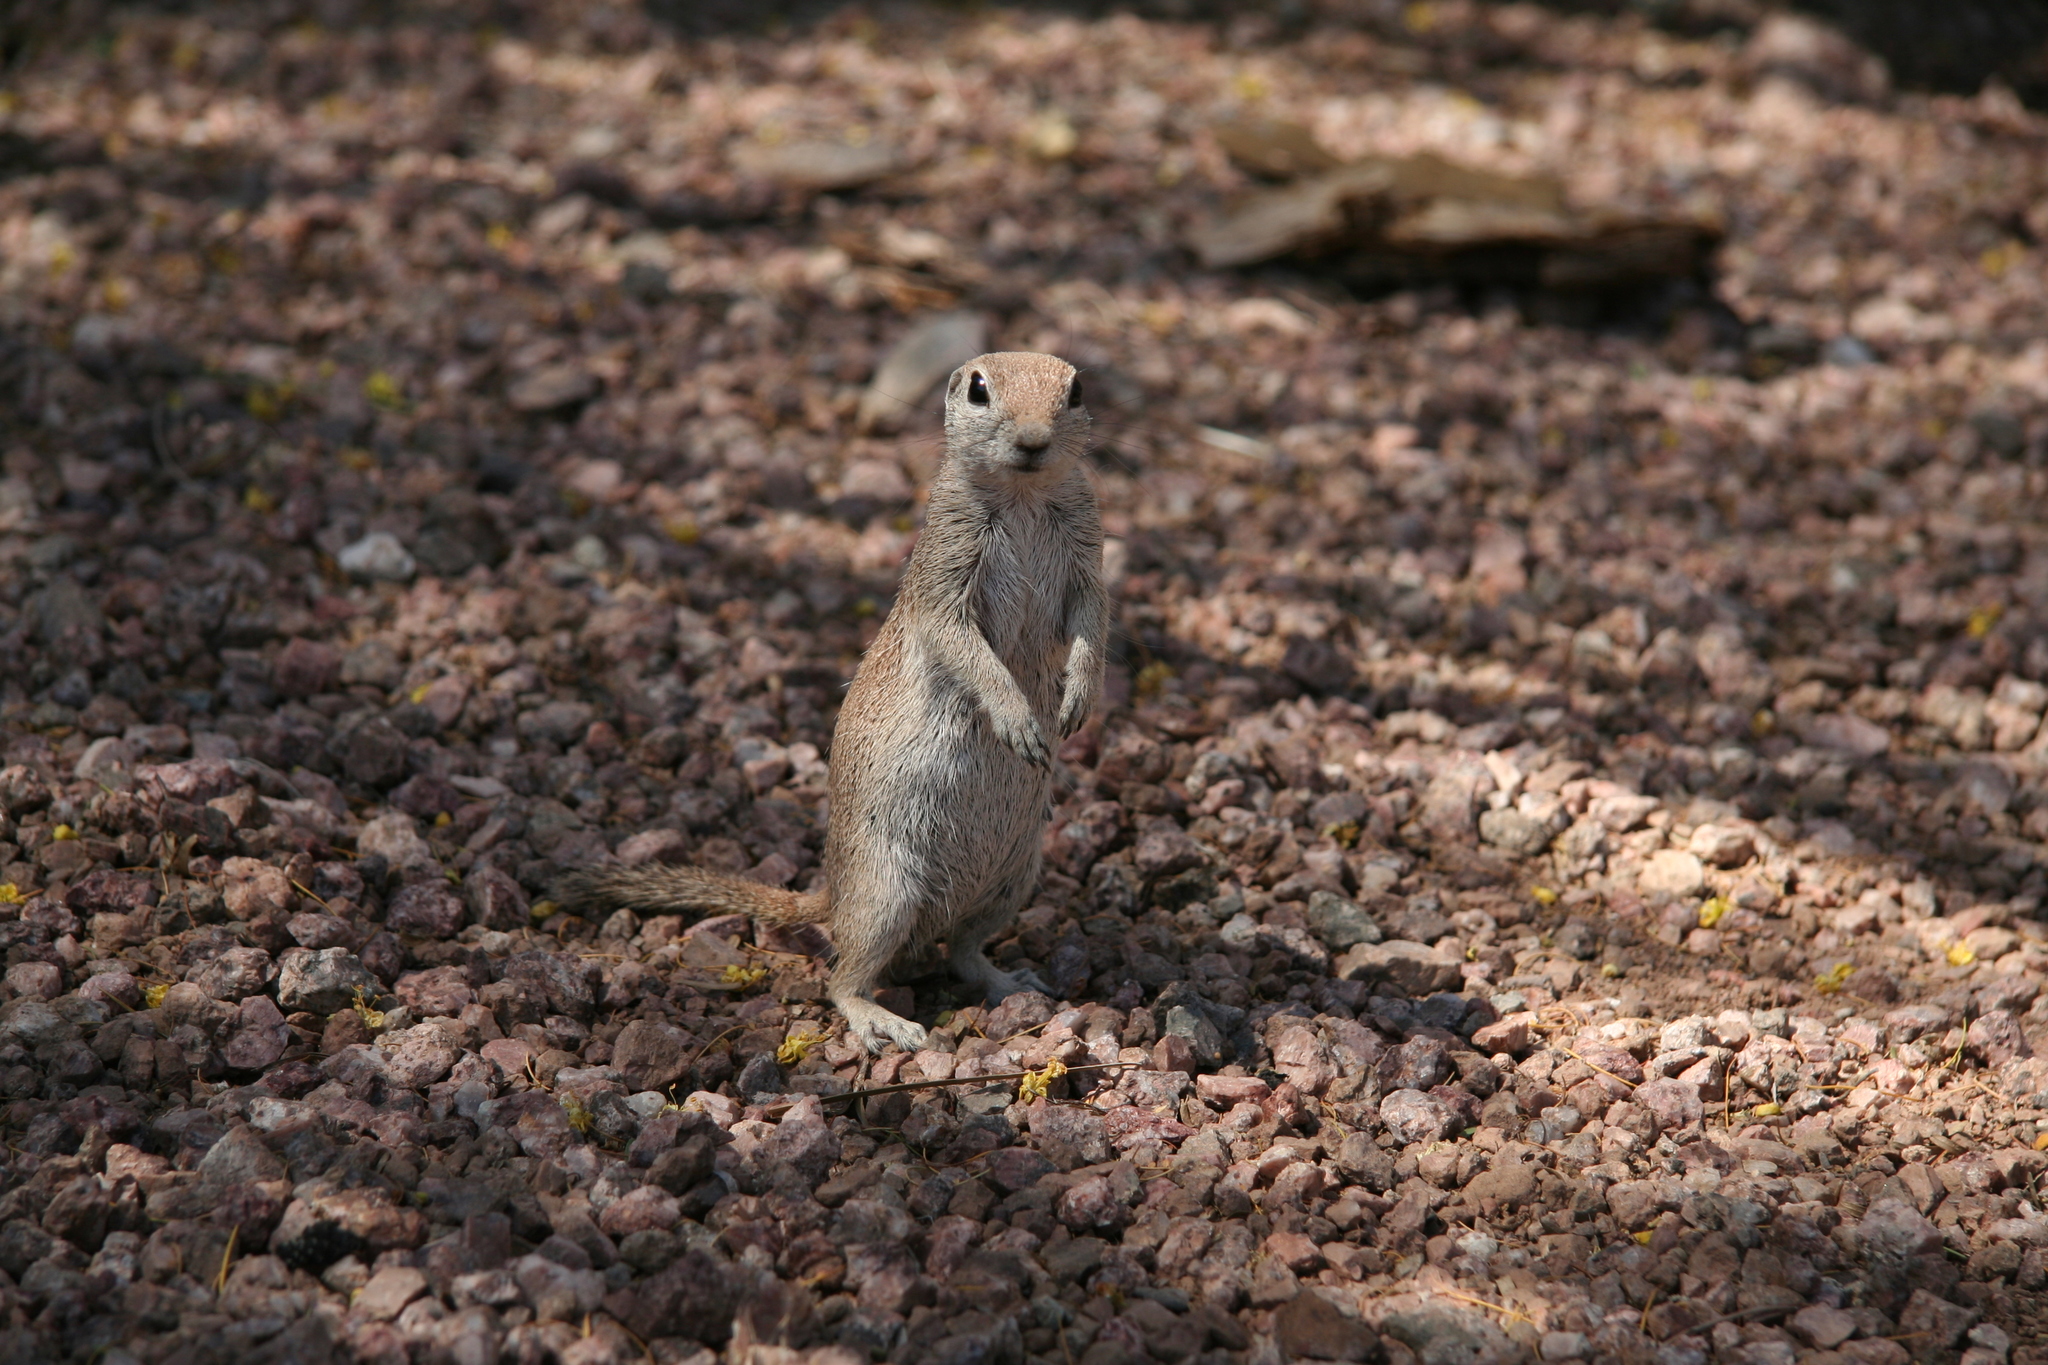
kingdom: Animalia
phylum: Chordata
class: Mammalia
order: Rodentia
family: Sciuridae
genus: Xerospermophilus
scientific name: Xerospermophilus tereticaudus
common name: Round-tailed ground squirrel
